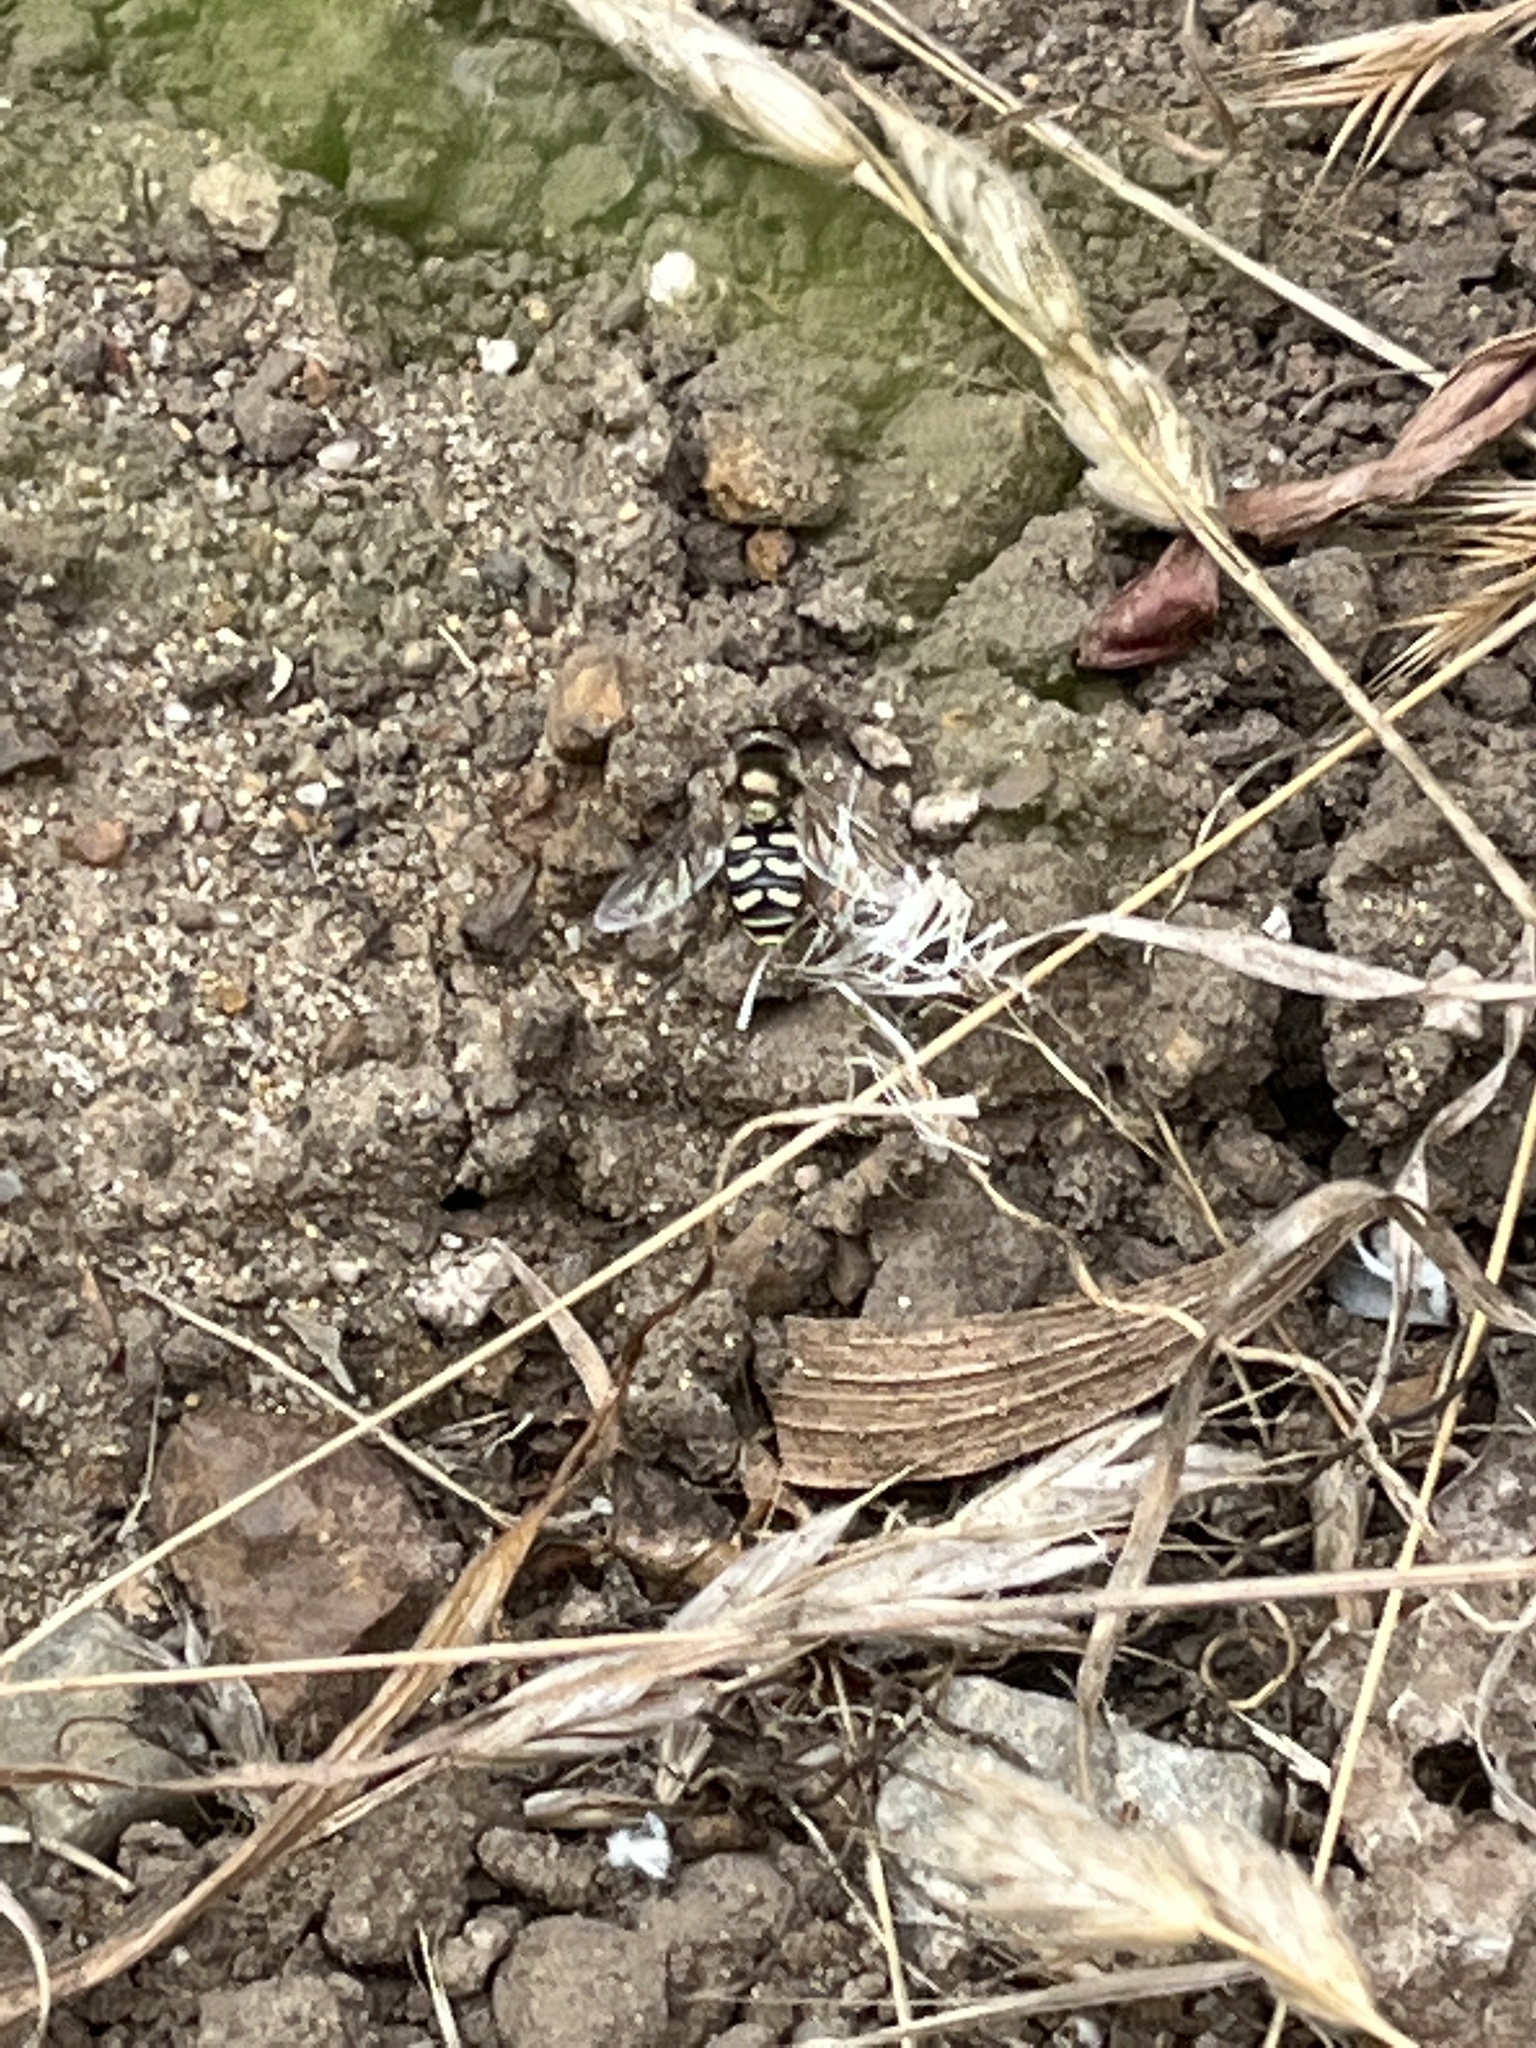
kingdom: Animalia
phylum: Arthropoda
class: Insecta
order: Diptera
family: Syrphidae
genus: Eupeodes
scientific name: Eupeodes fumipennis
